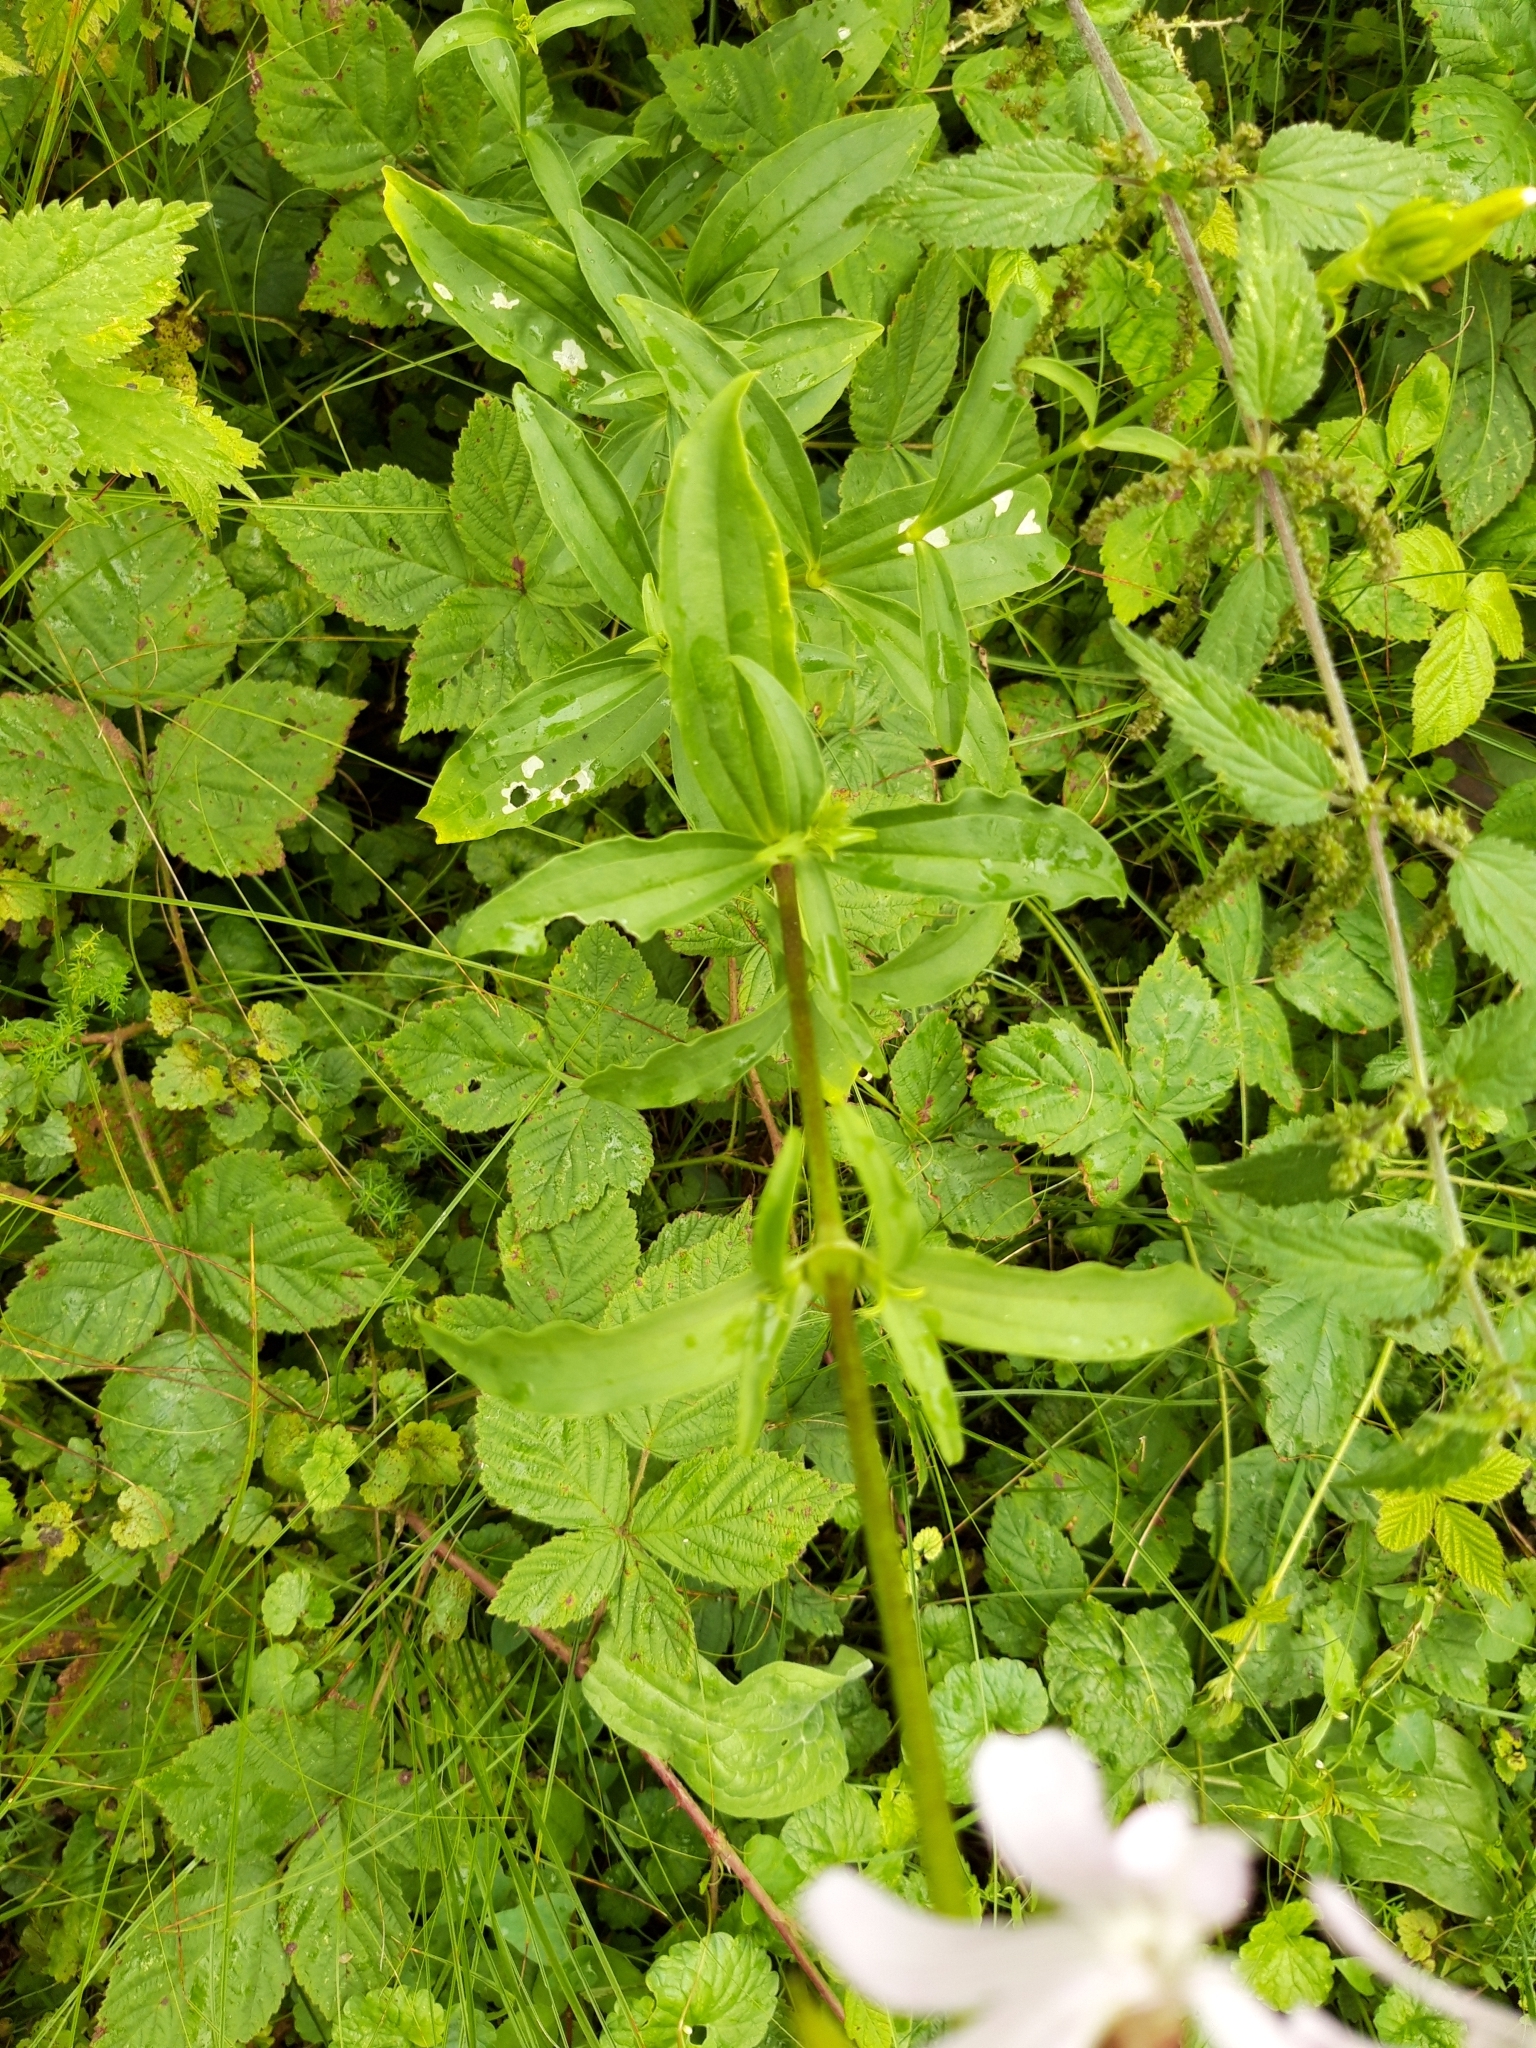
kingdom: Plantae
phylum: Tracheophyta
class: Magnoliopsida
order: Caryophyllales
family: Caryophyllaceae
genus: Saponaria
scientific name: Saponaria officinalis
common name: Soapwort
